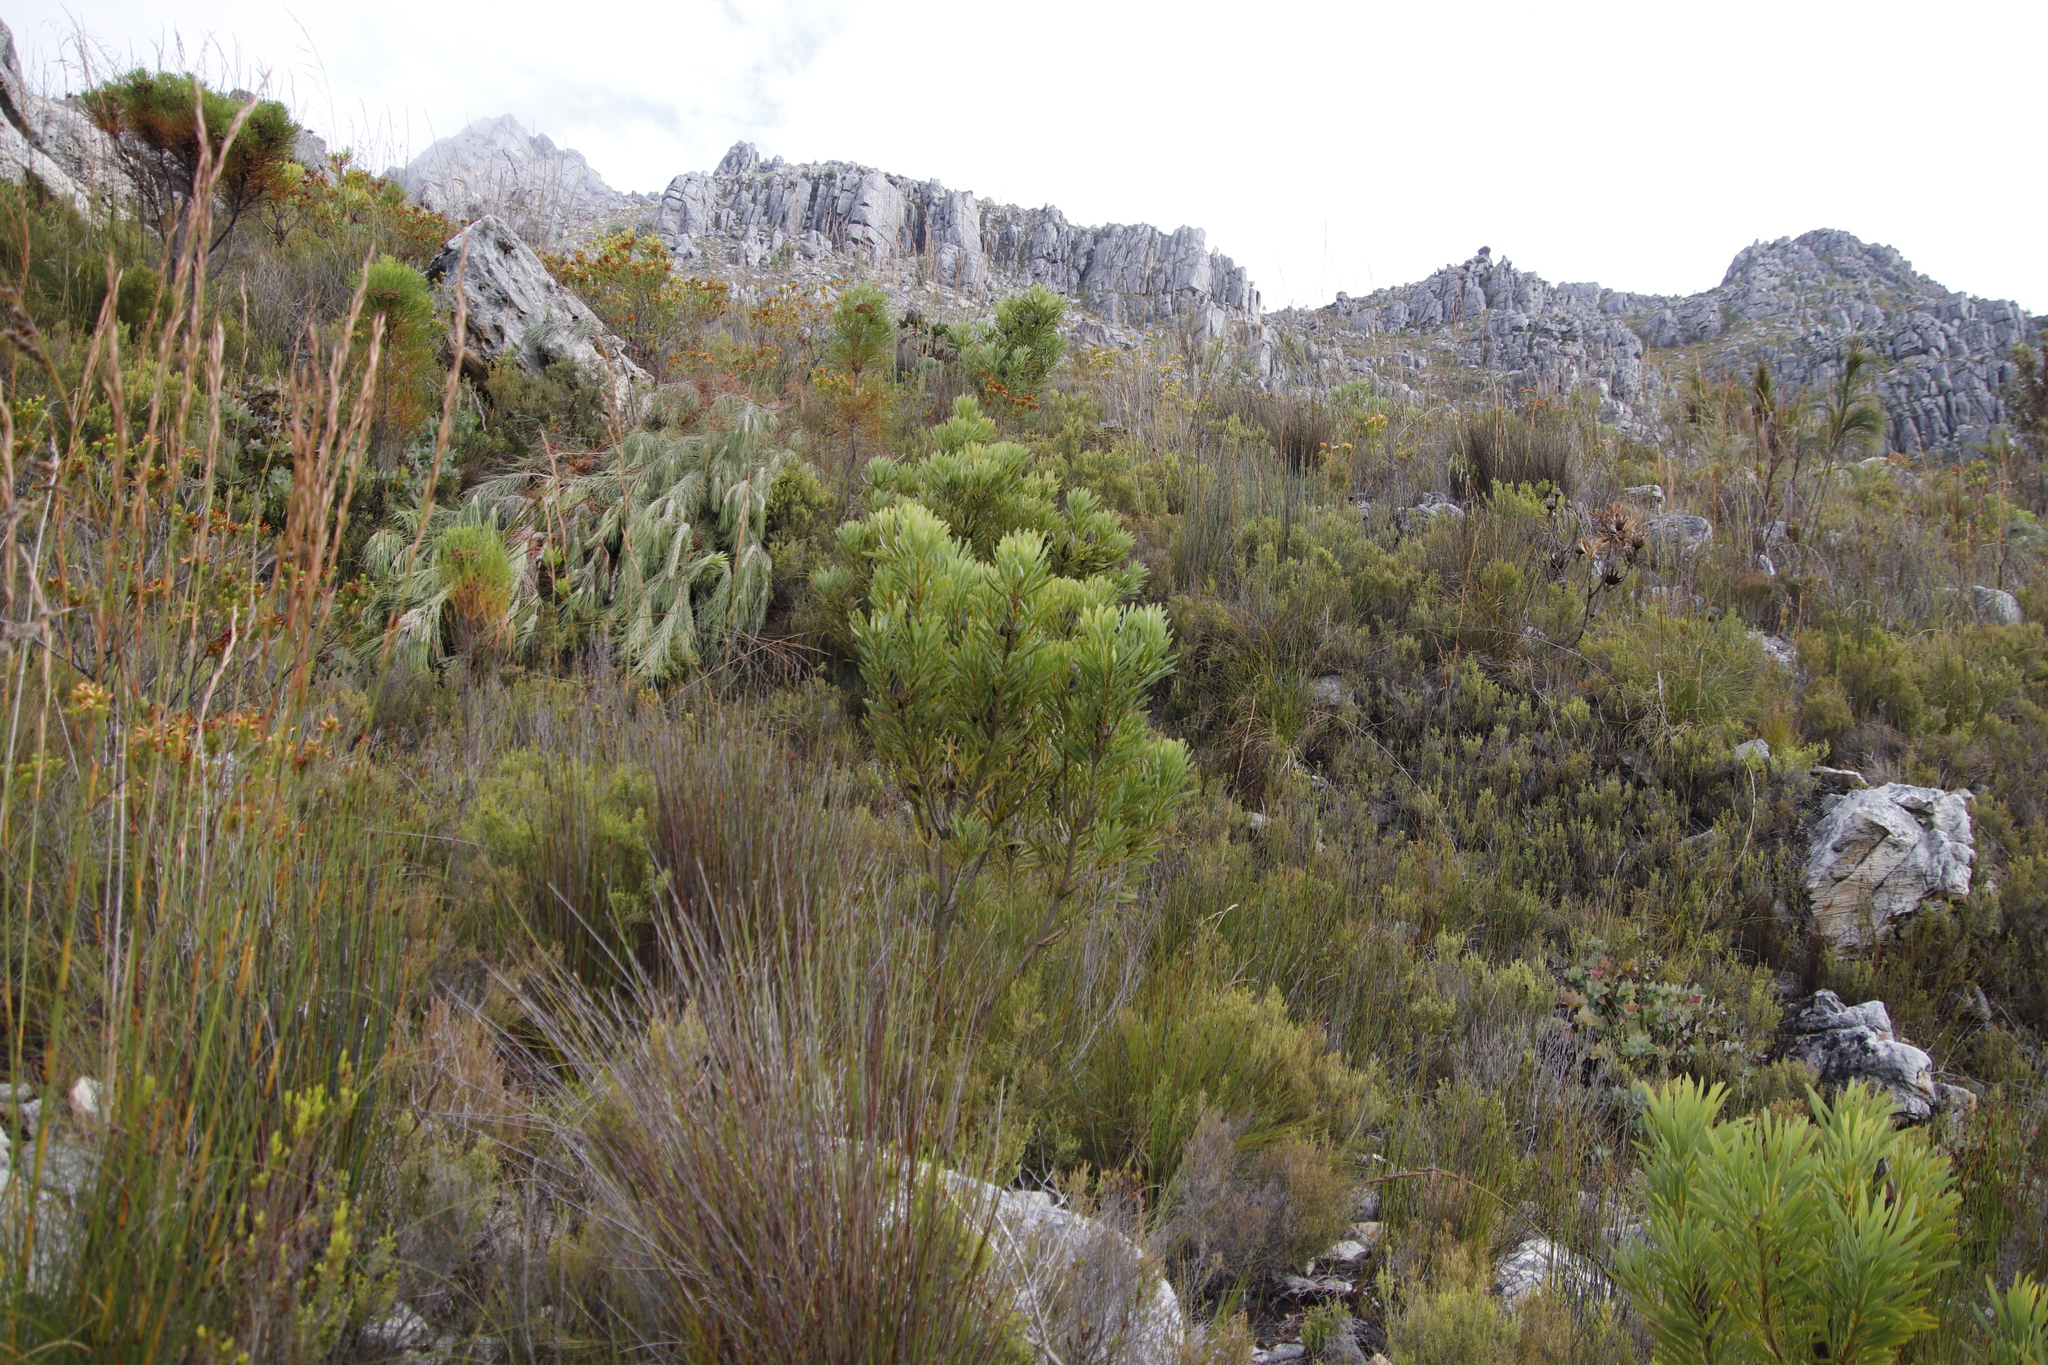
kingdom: Plantae
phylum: Tracheophyta
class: Magnoliopsida
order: Proteales
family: Proteaceae
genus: Protea
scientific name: Protea repens
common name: Sugarbush
